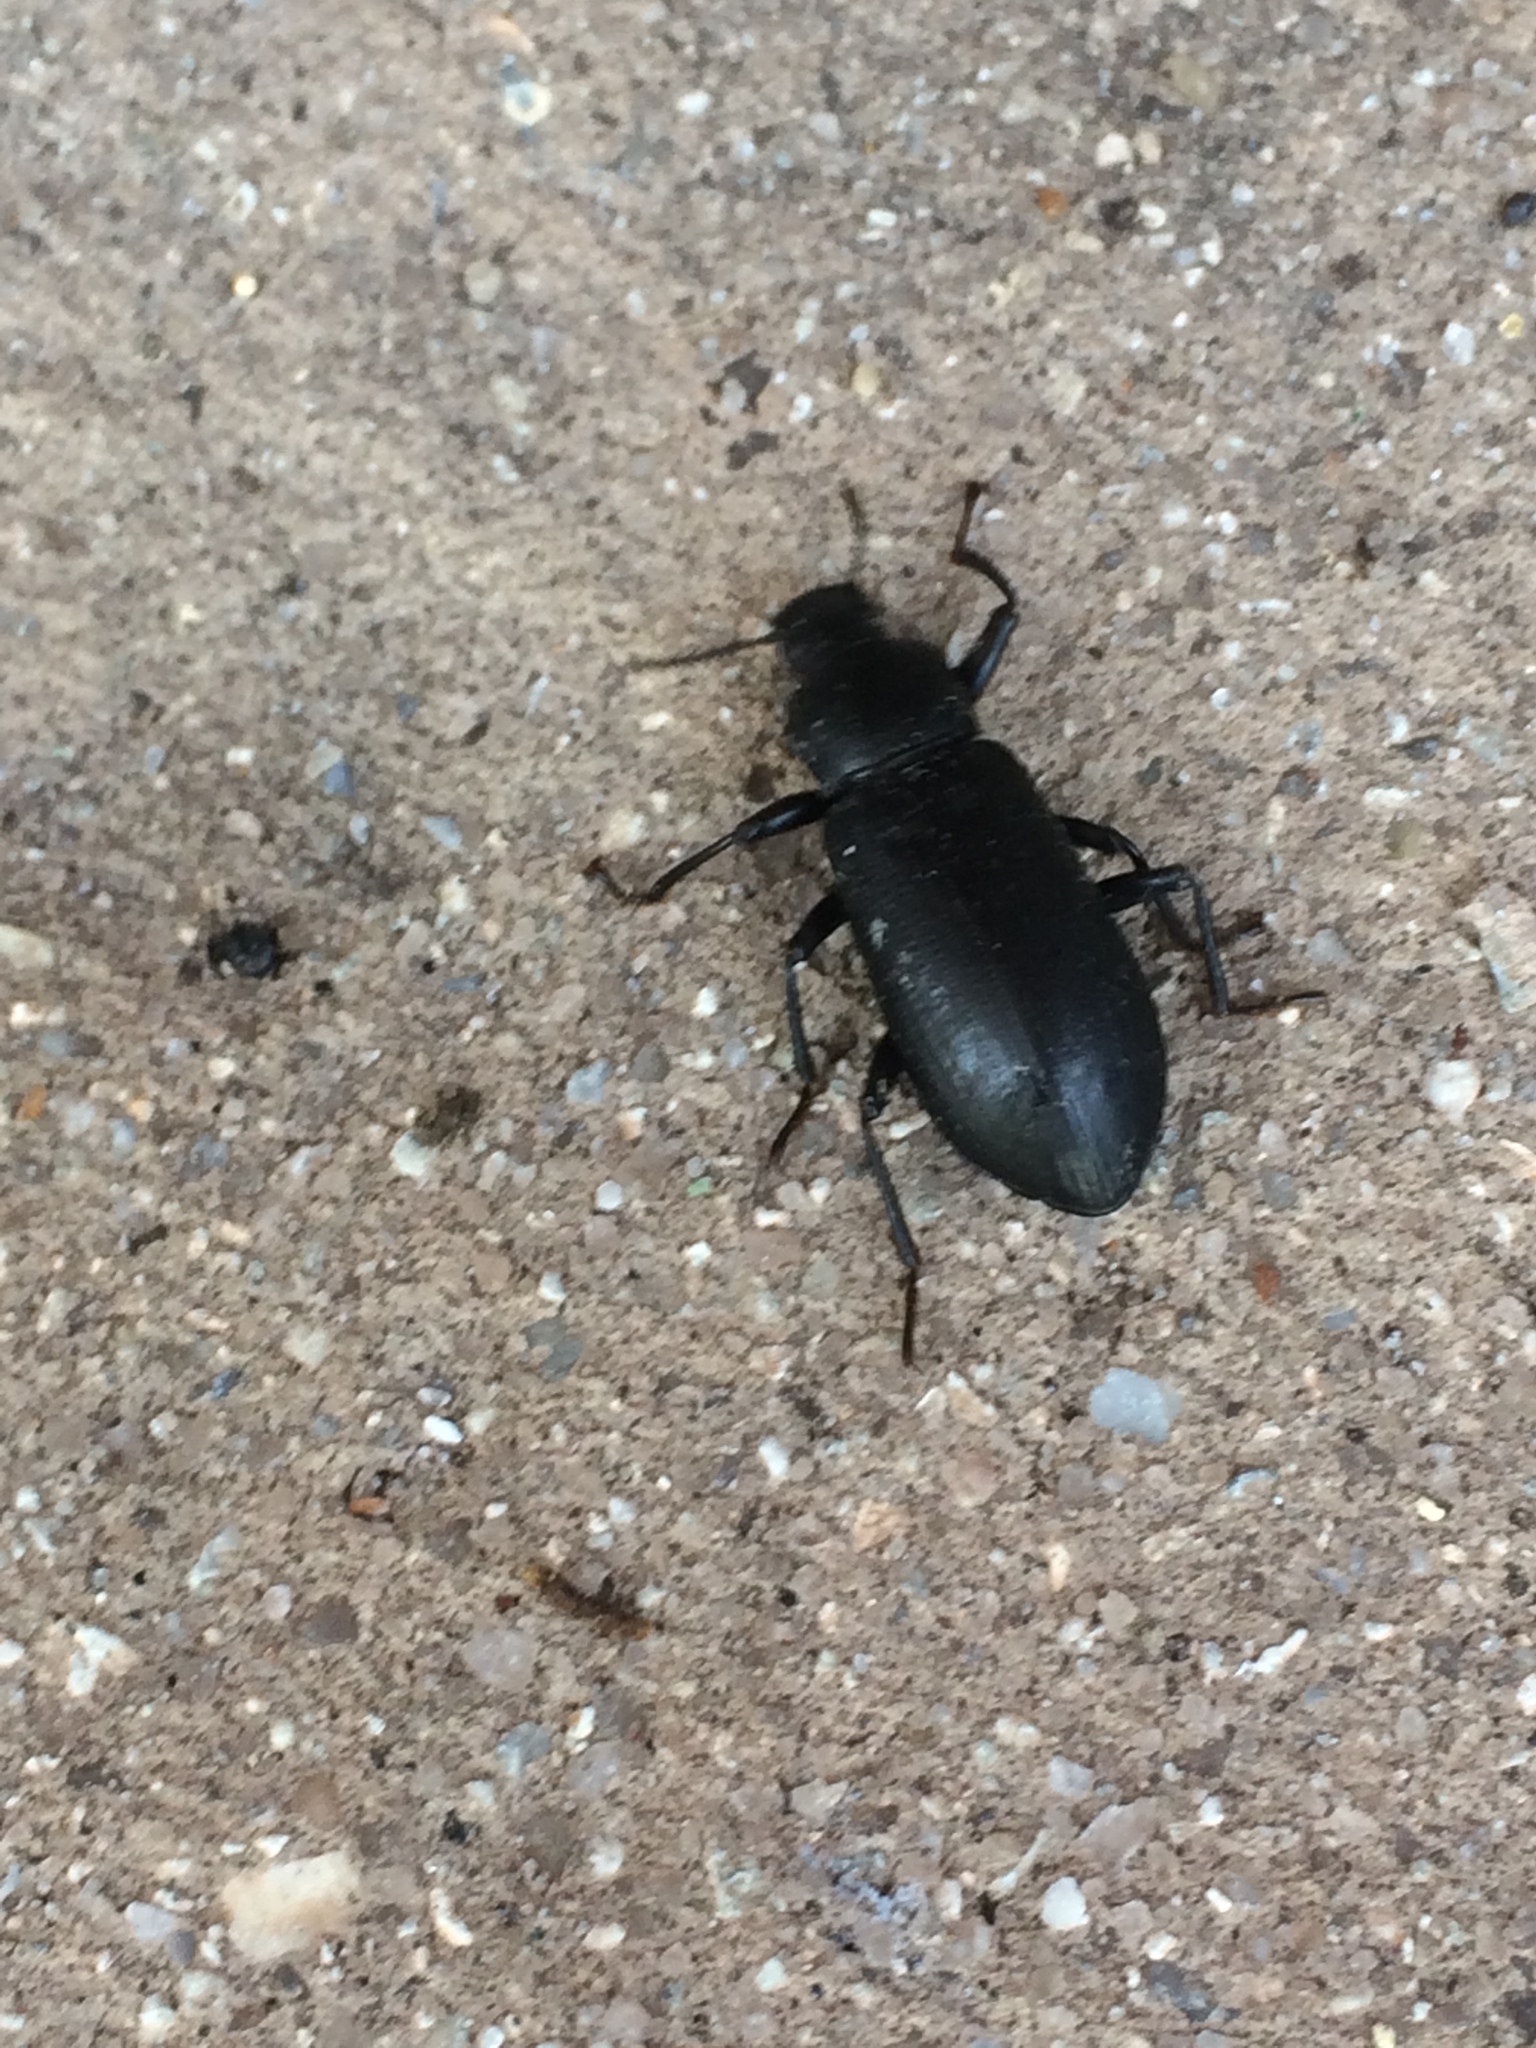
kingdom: Animalia
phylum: Arthropoda
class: Insecta
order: Coleoptera
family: Tenebrionidae
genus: Alobates
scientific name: Alobates
